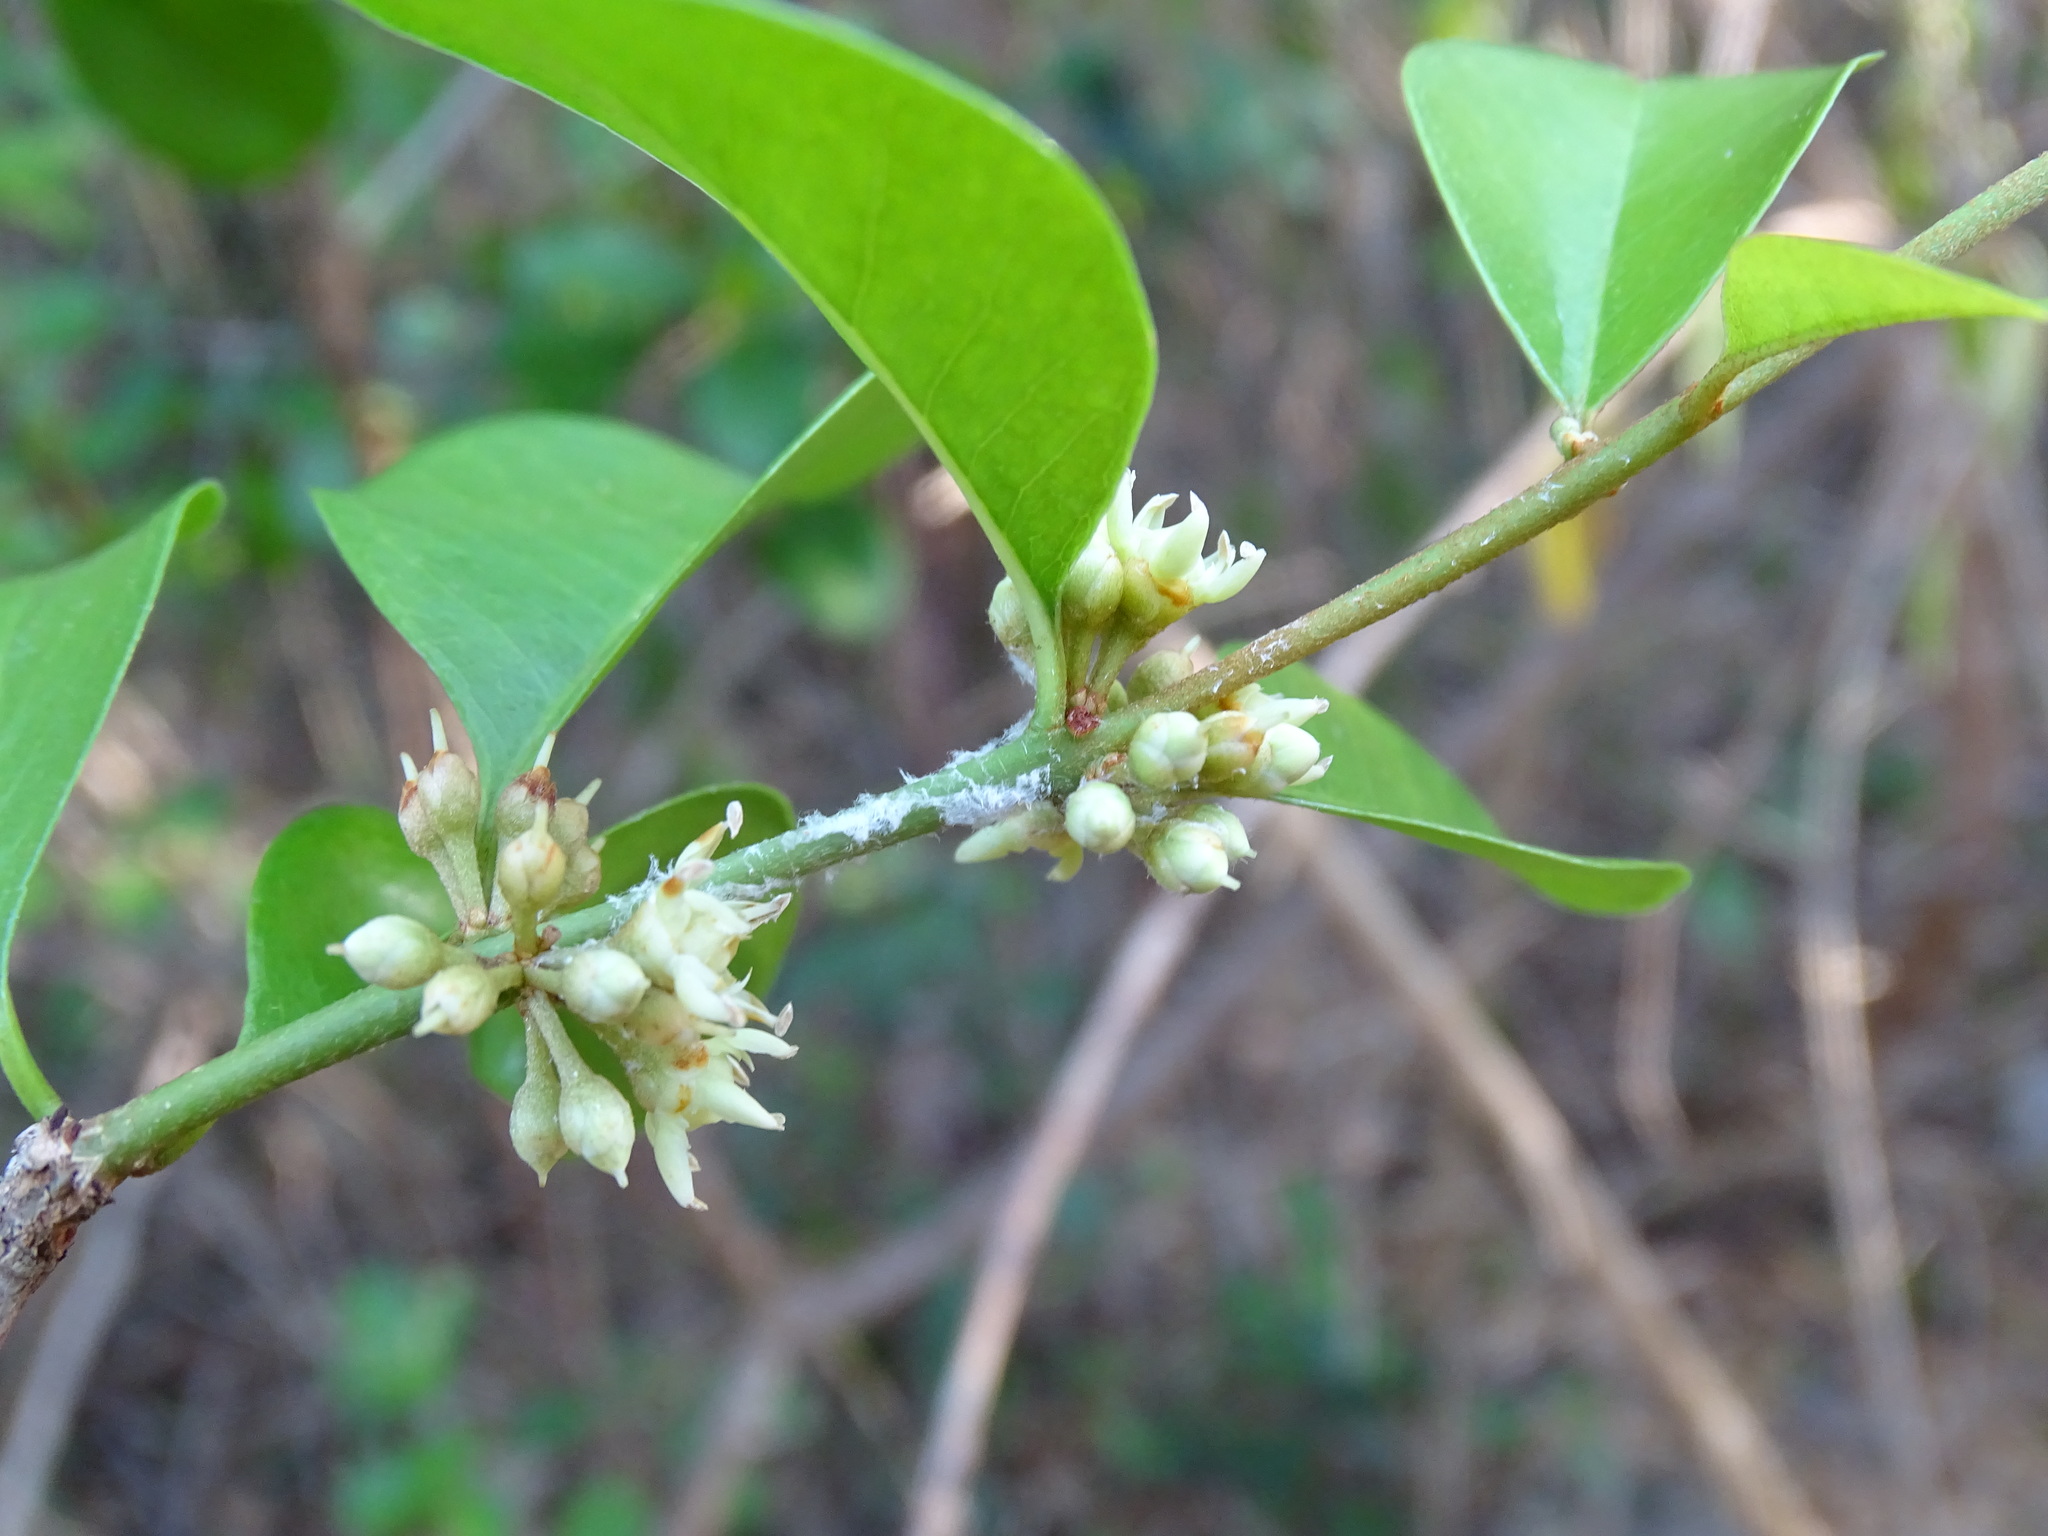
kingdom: Plantae
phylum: Tracheophyta
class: Magnoliopsida
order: Ericales
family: Sapotaceae
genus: Sideroxylon
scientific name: Sideroxylon obtusifolium
